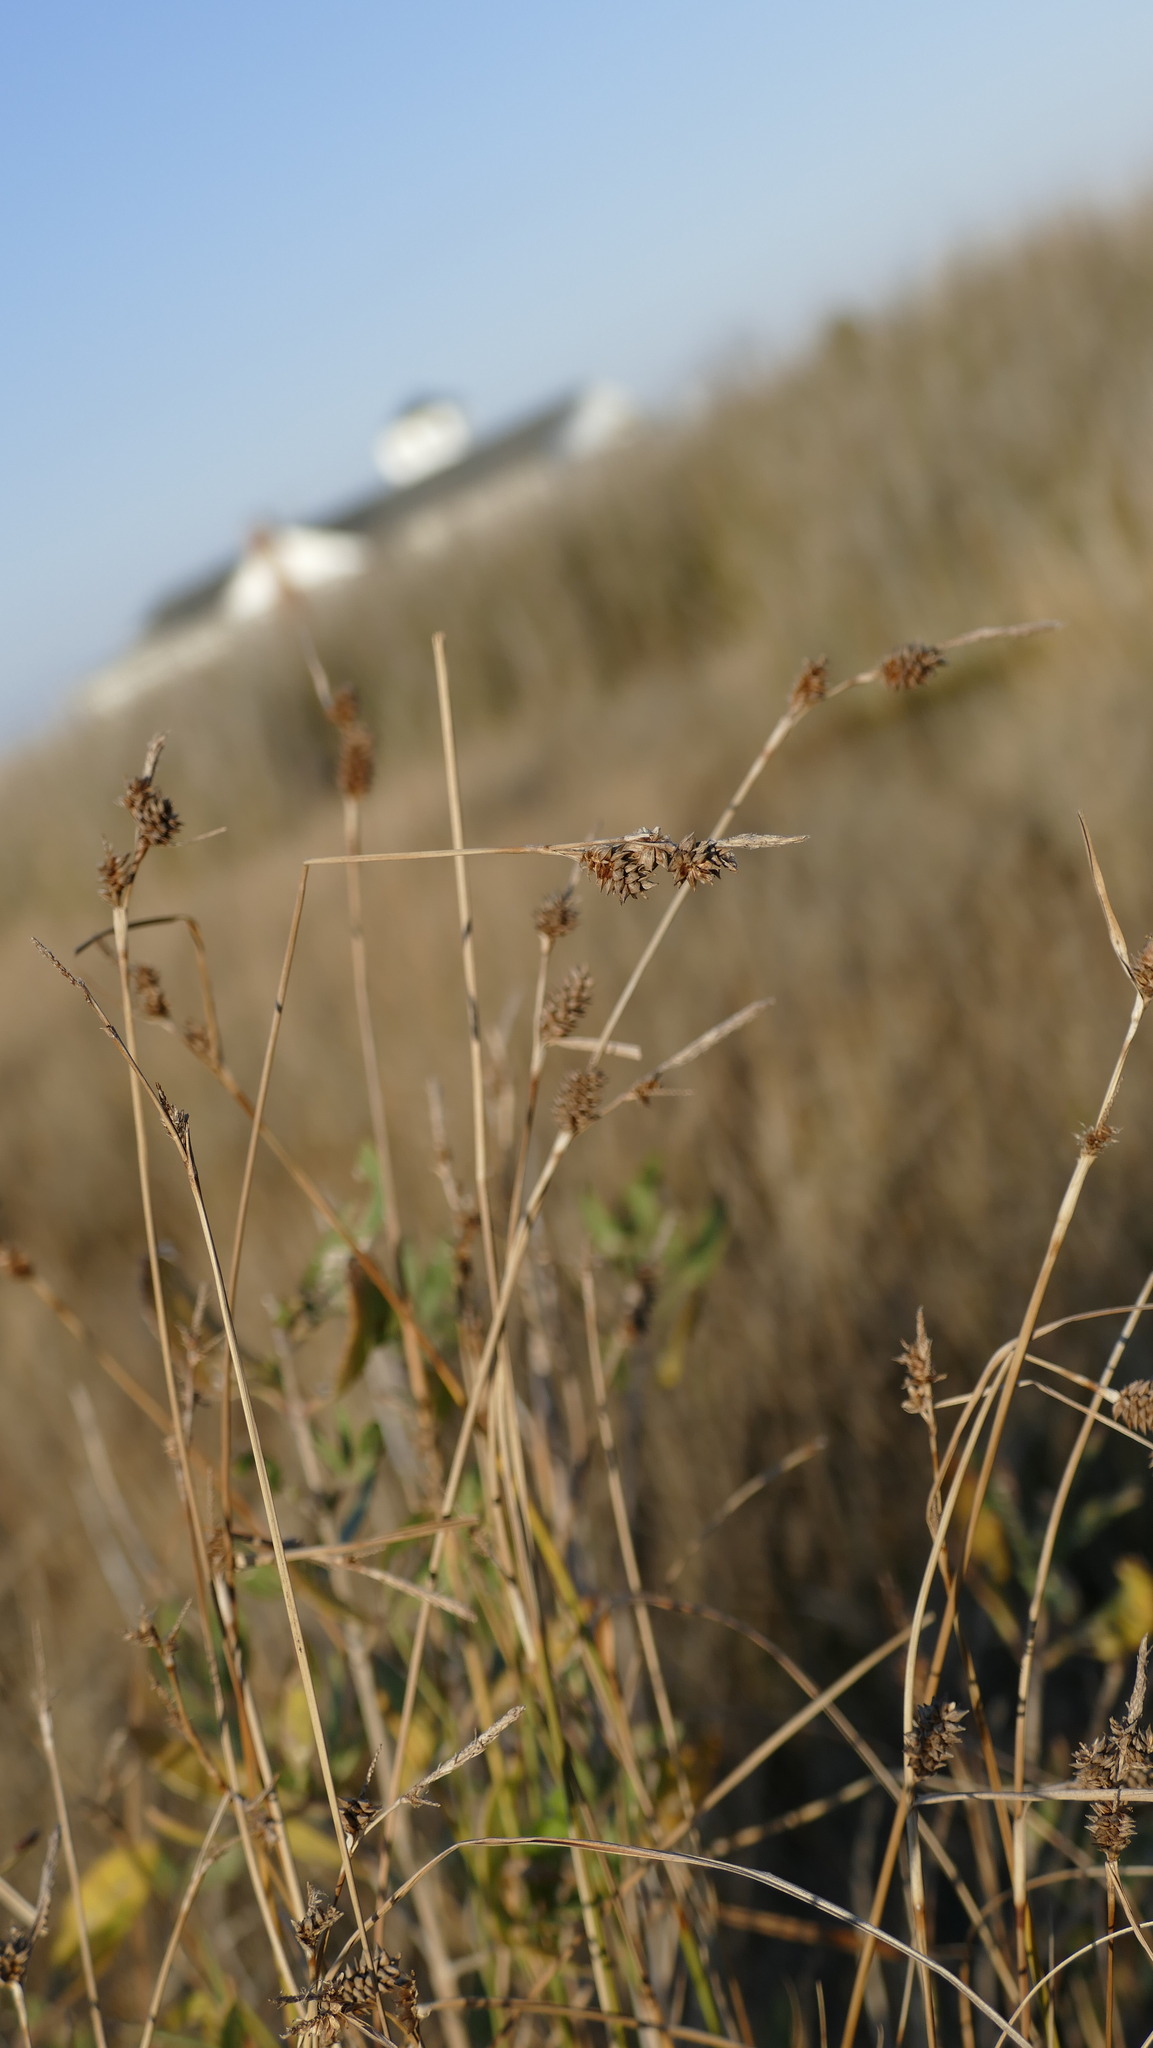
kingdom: Plantae
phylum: Tracheophyta
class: Liliopsida
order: Poales
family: Cyperaceae
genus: Carex
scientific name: Carex extensa
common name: Long-bracted sedge
